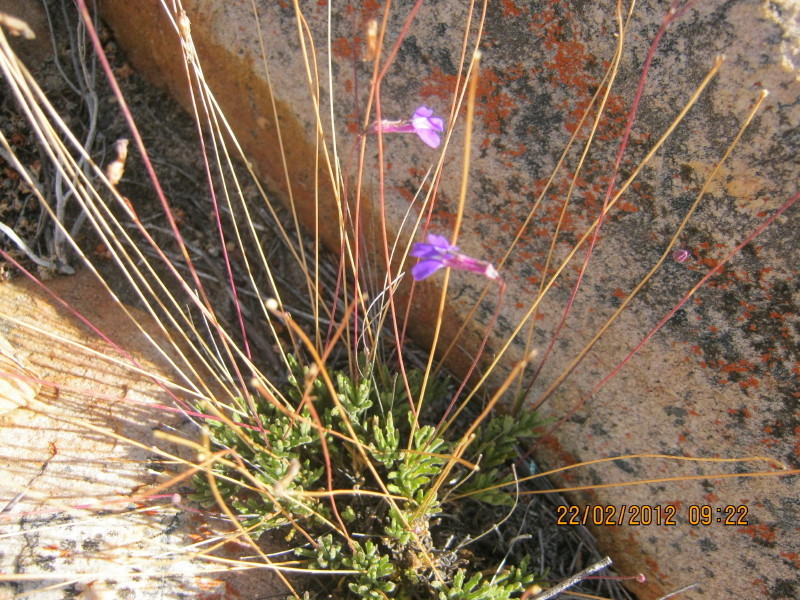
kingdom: Plantae
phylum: Tracheophyta
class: Magnoliopsida
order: Asterales
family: Campanulaceae
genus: Lobelia
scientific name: Lobelia tomentosa
